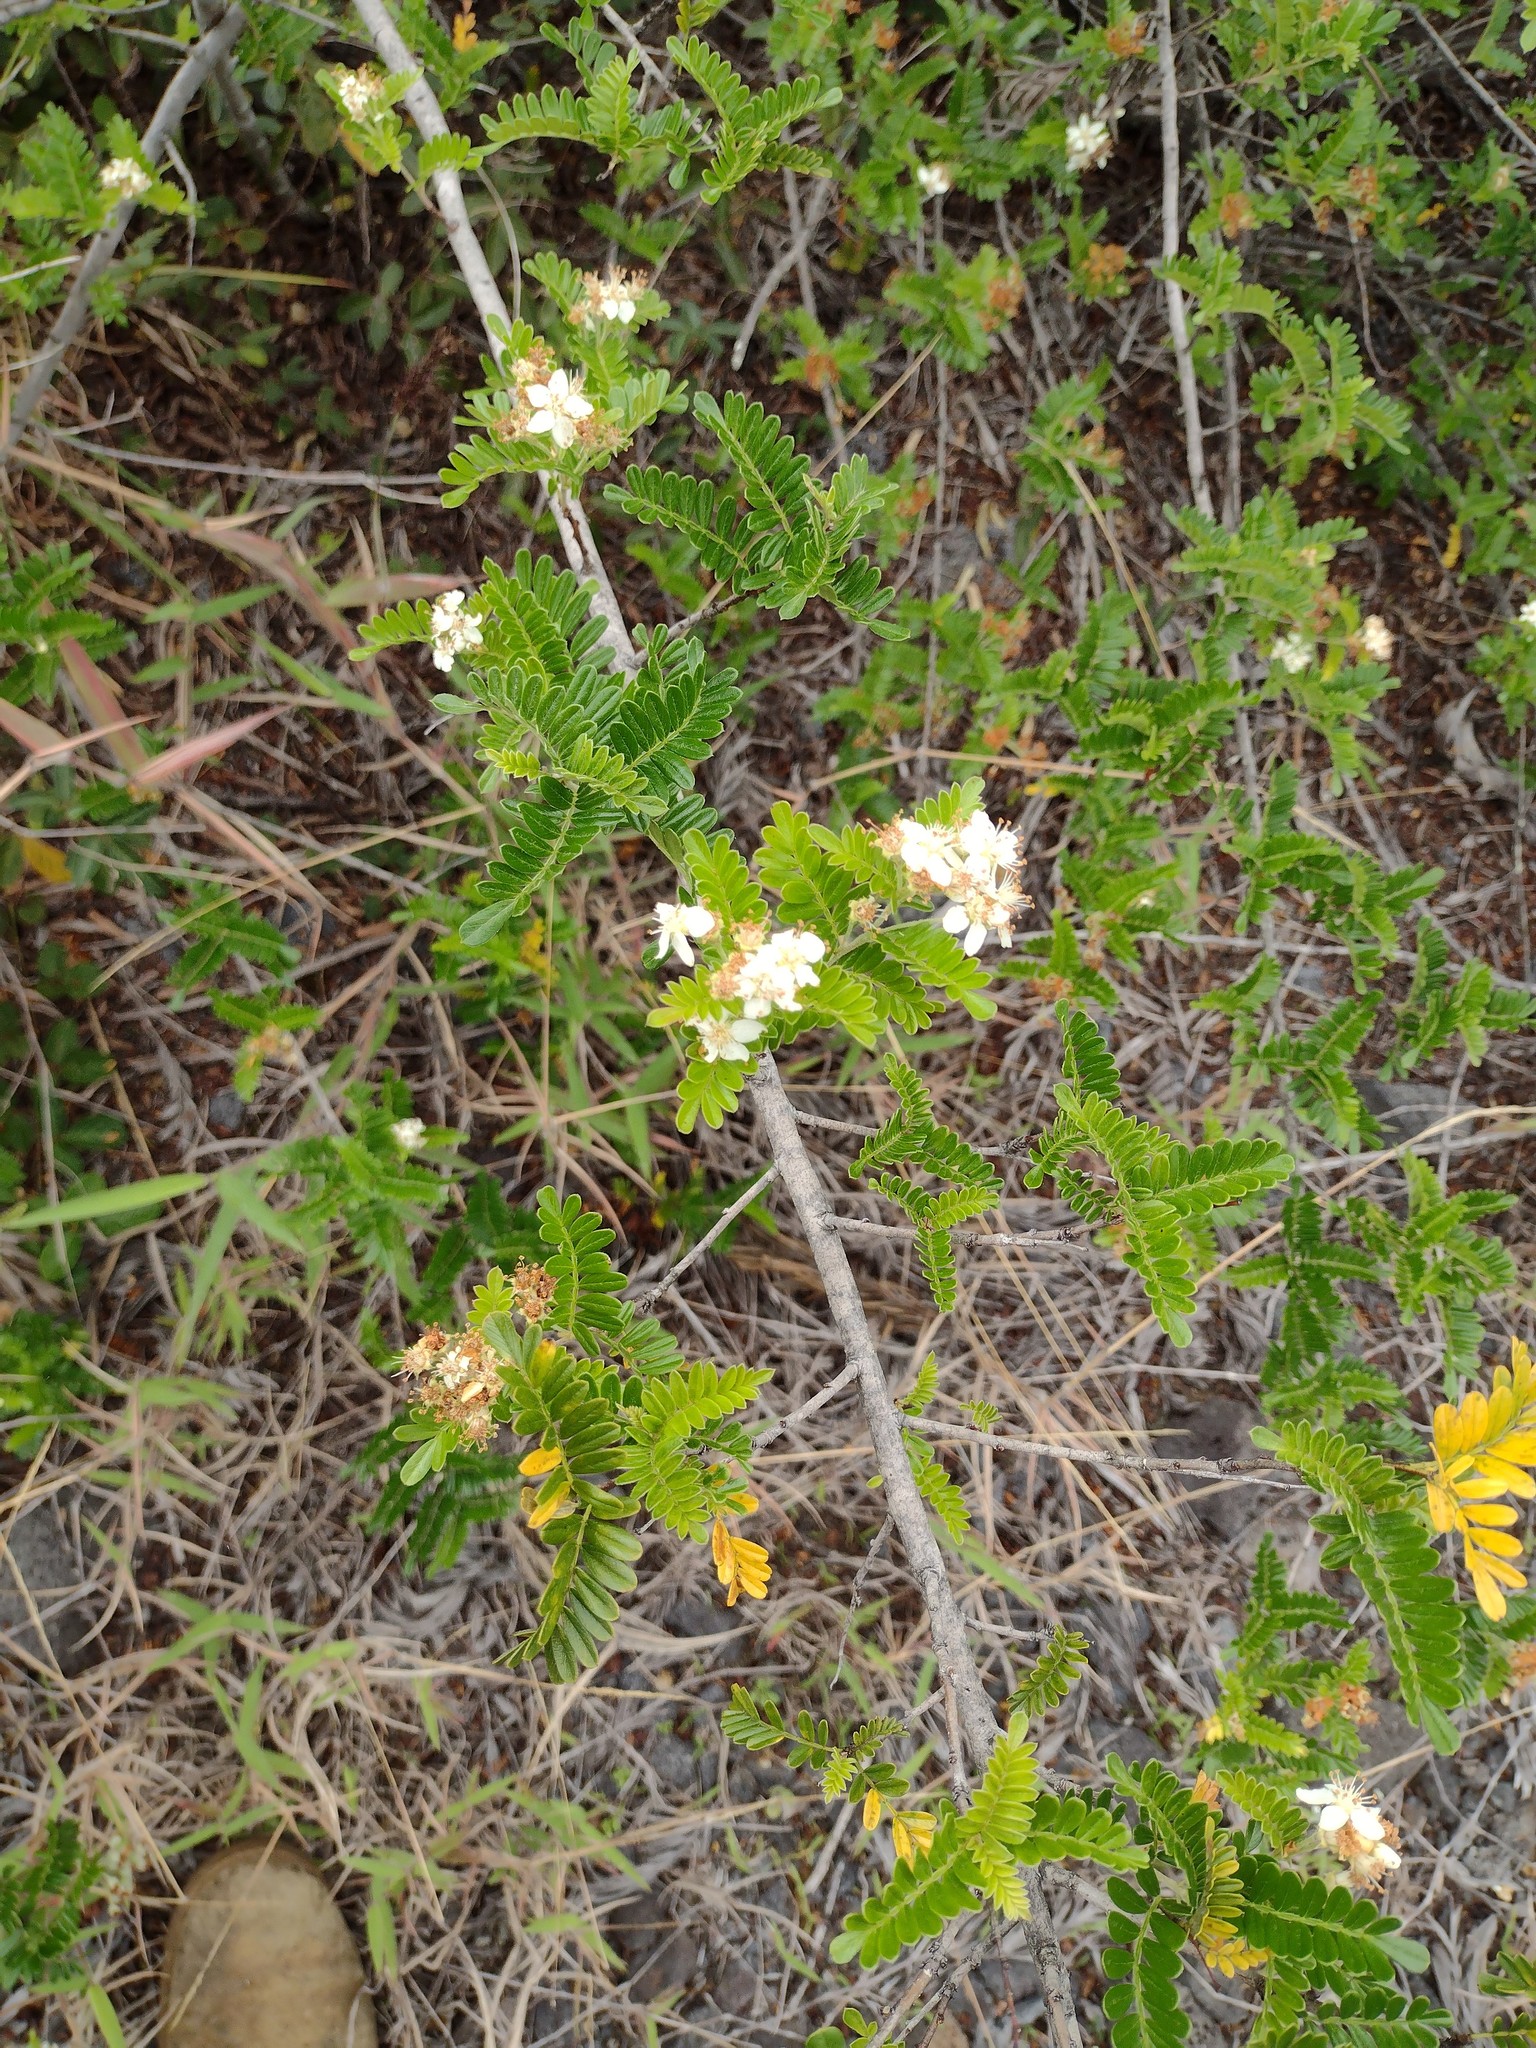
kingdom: Plantae
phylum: Tracheophyta
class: Magnoliopsida
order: Rosales
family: Rosaceae
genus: Osteomeles
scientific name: Osteomeles anthyllidifolia
